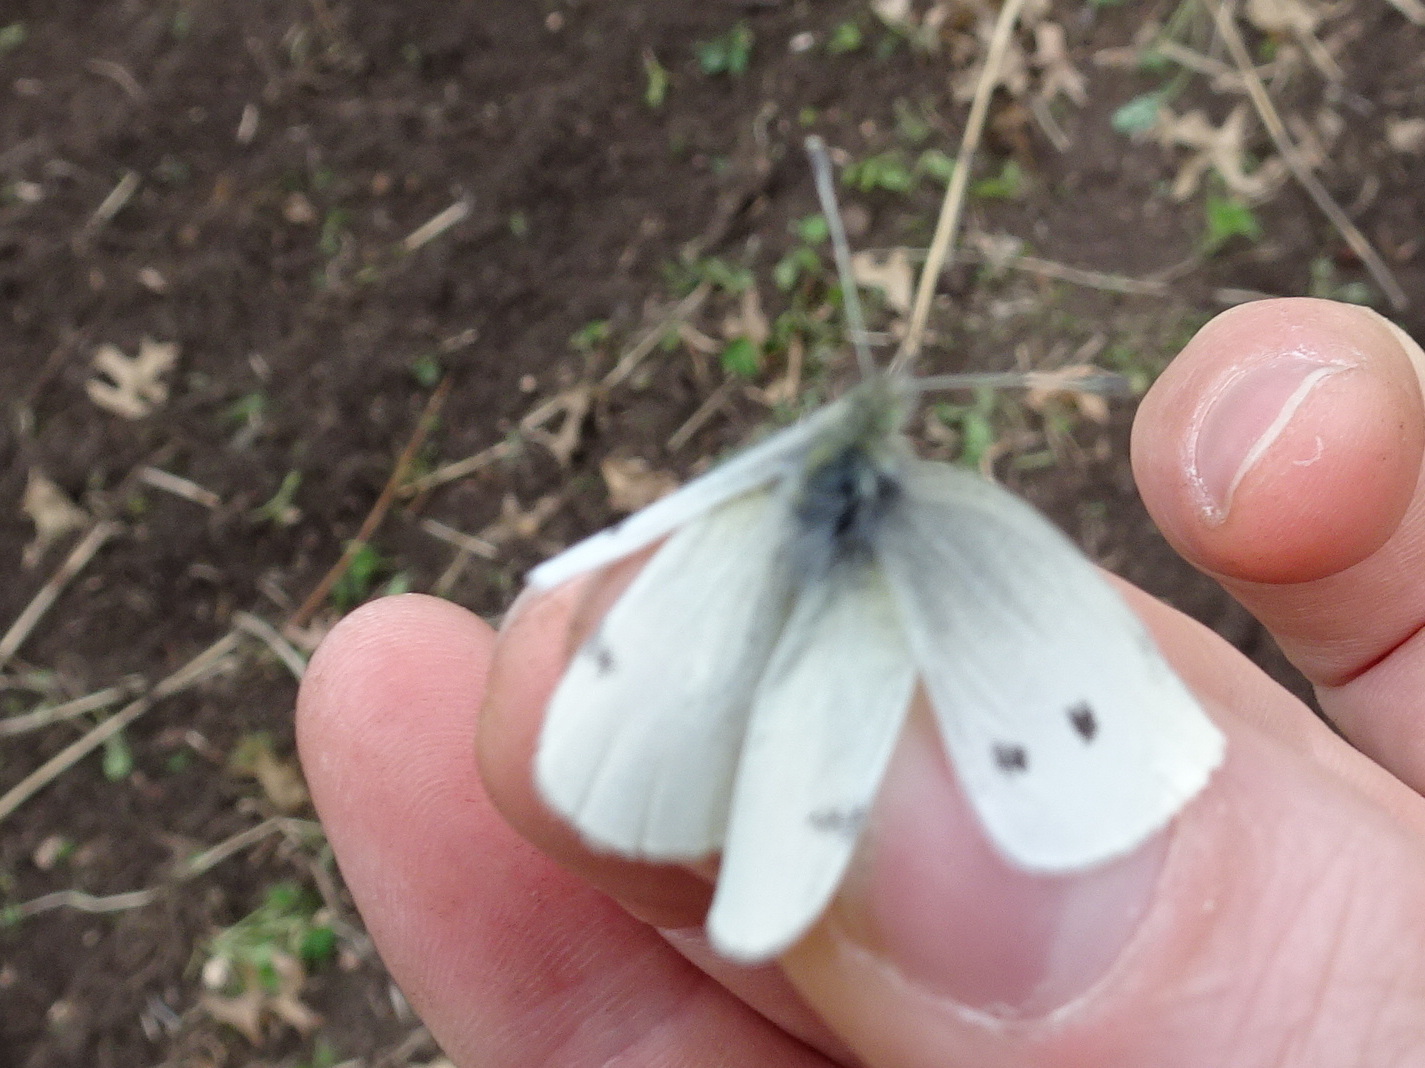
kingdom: Animalia
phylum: Arthropoda
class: Insecta
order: Lepidoptera
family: Pieridae
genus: Pieris
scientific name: Pieris rapae
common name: Small white
